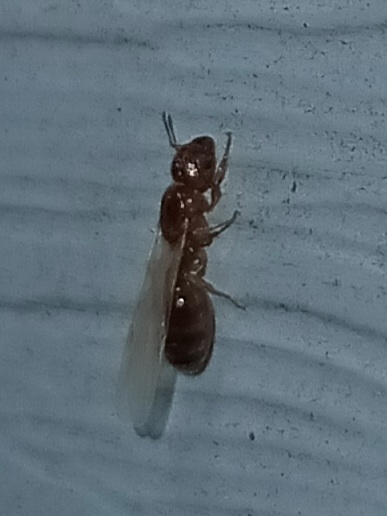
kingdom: Animalia
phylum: Arthropoda
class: Insecta
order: Hymenoptera
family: Formicidae
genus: Pheidole
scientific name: Pheidole bicarinata
